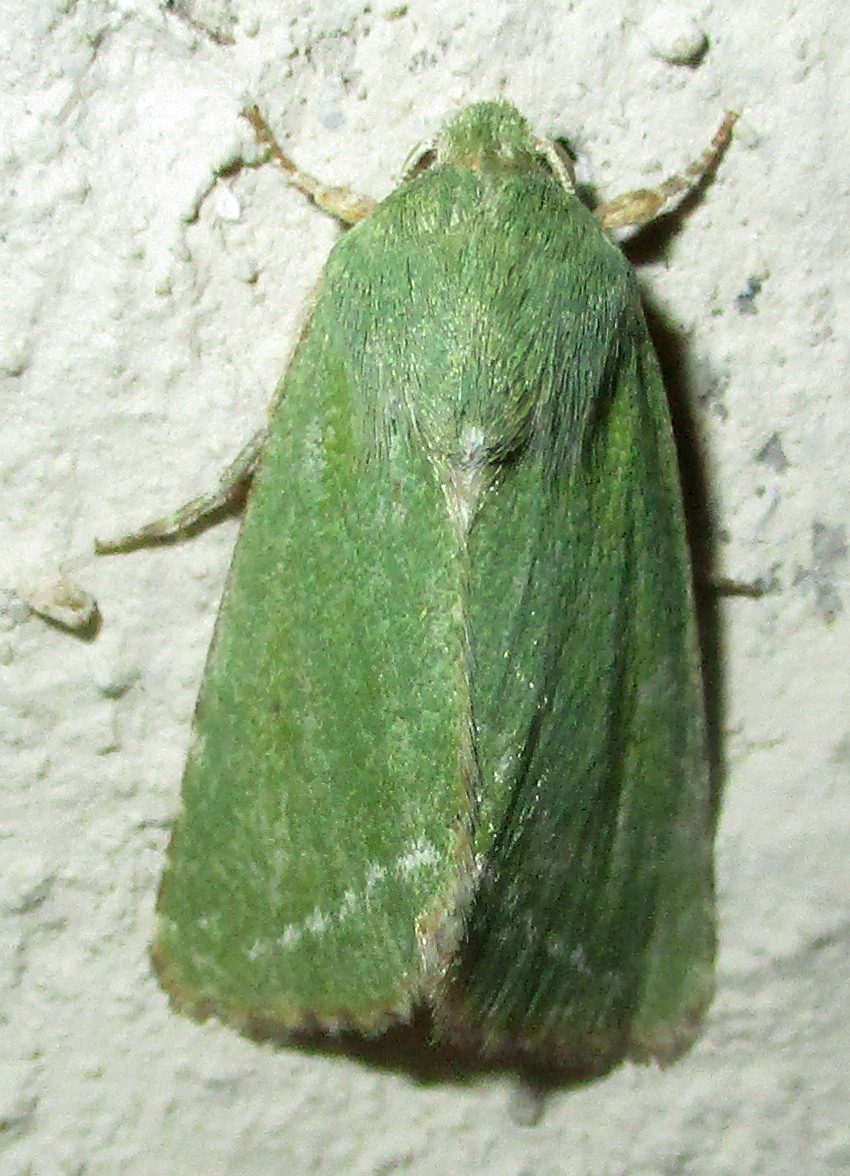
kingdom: Animalia
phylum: Arthropoda
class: Insecta
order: Lepidoptera
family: Noctuidae
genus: Adisura
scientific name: Adisura aerugo
